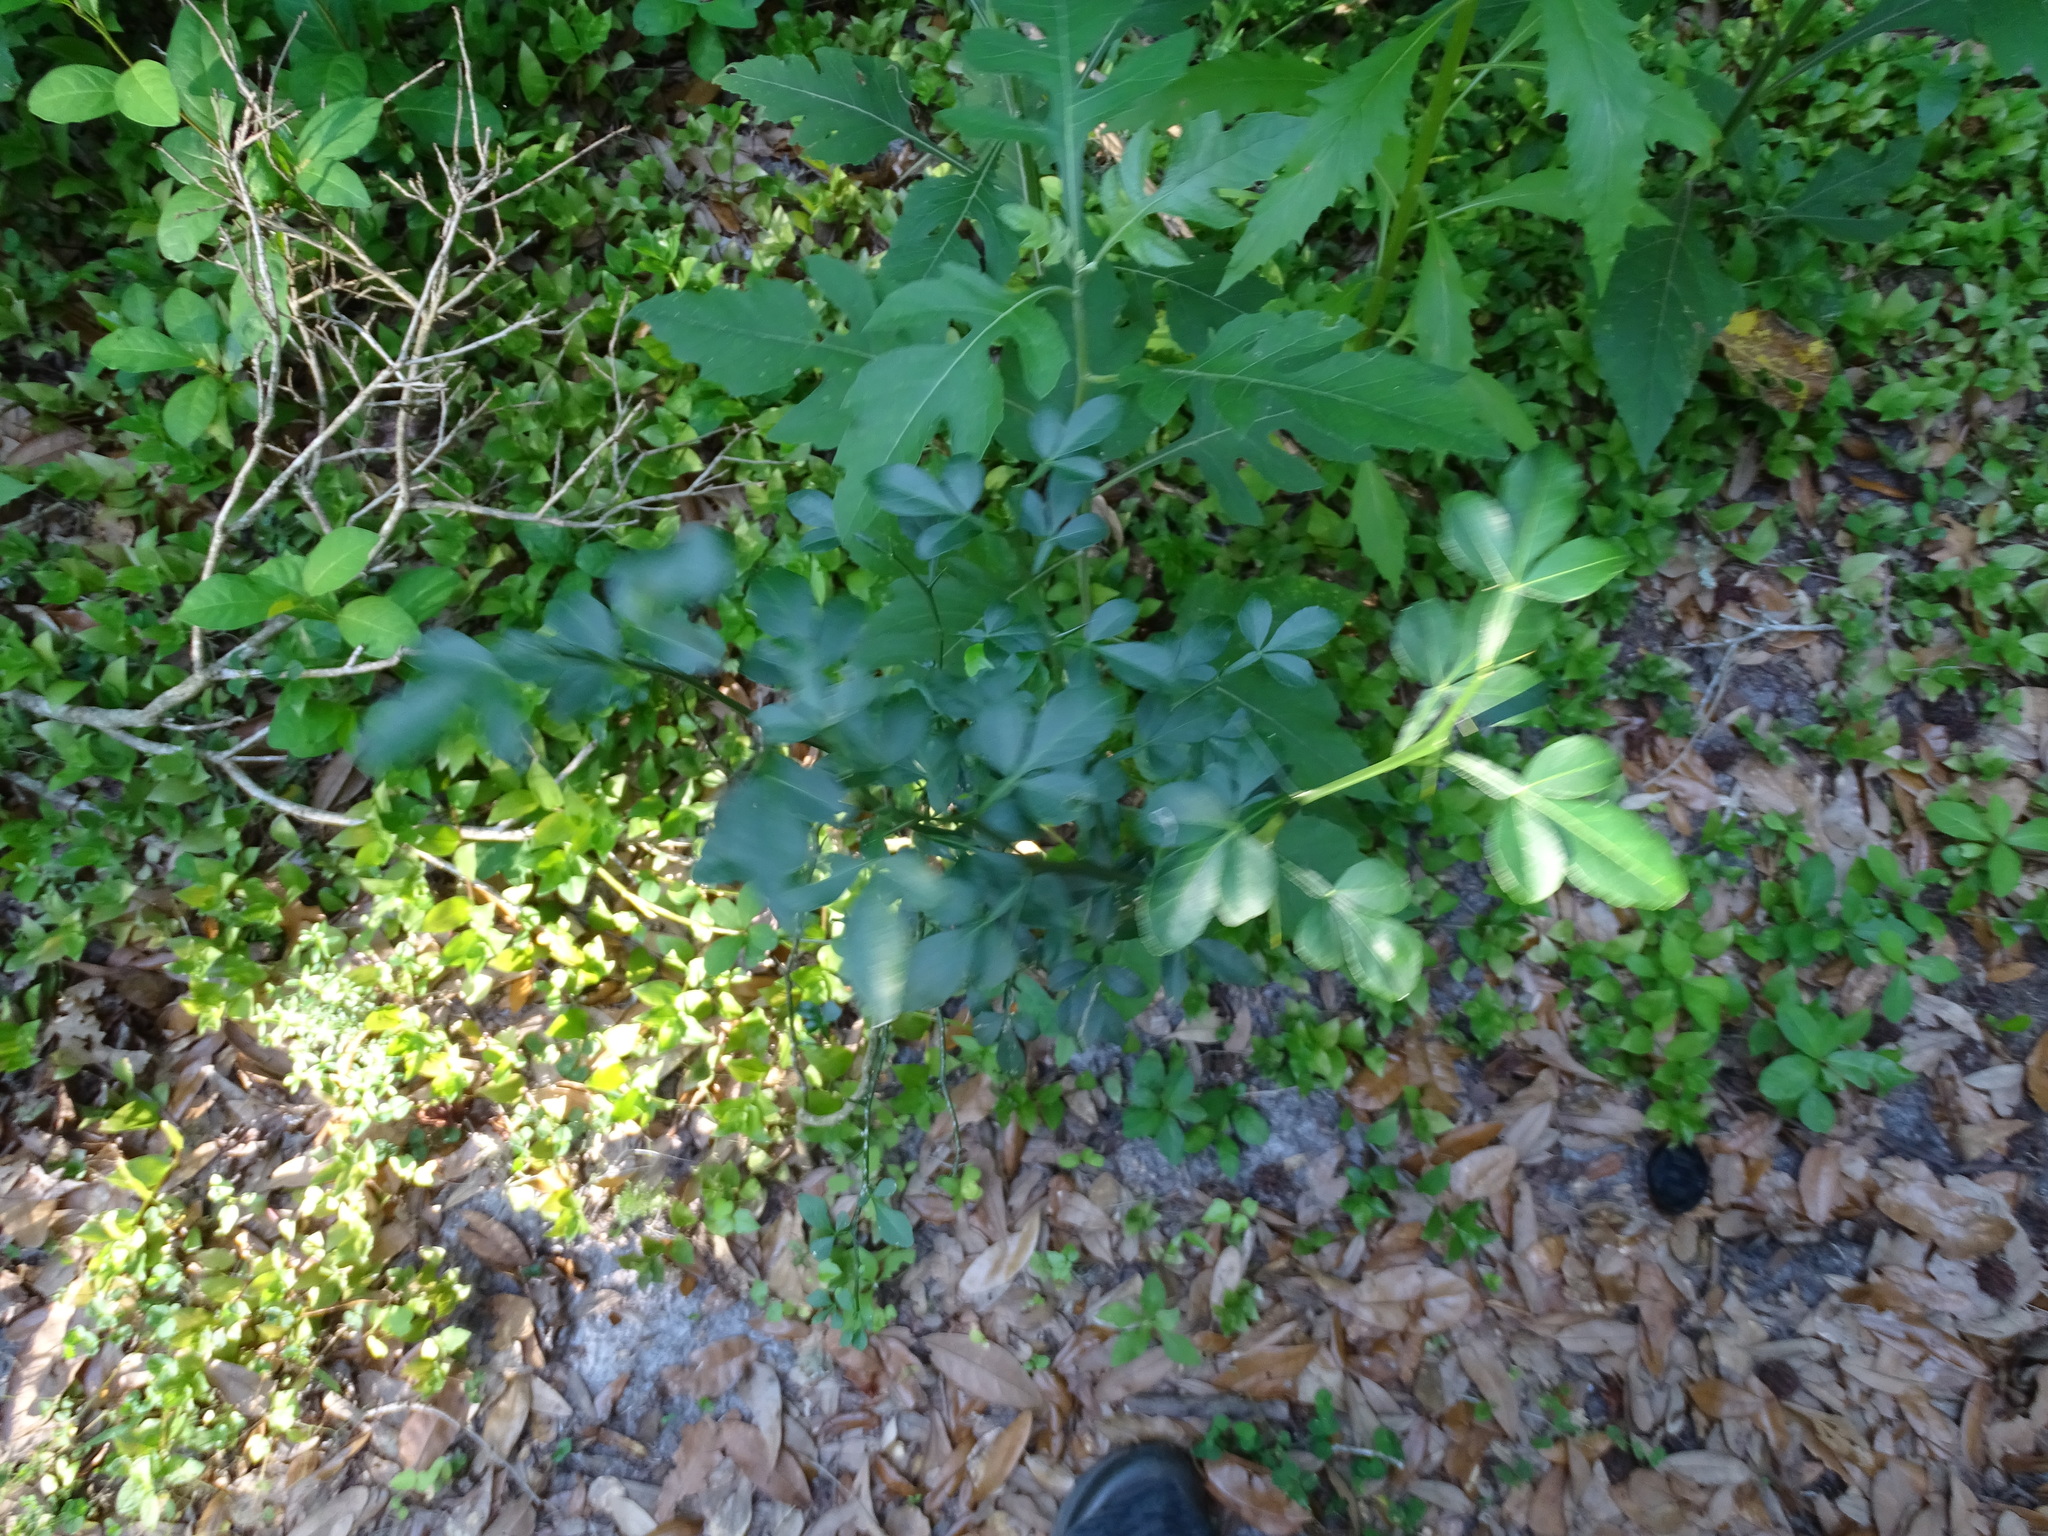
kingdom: Plantae
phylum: Tracheophyta
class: Magnoliopsida
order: Sapindales
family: Rutaceae
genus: Citrus
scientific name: Citrus trifoliata
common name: Japanese bitter-orange
